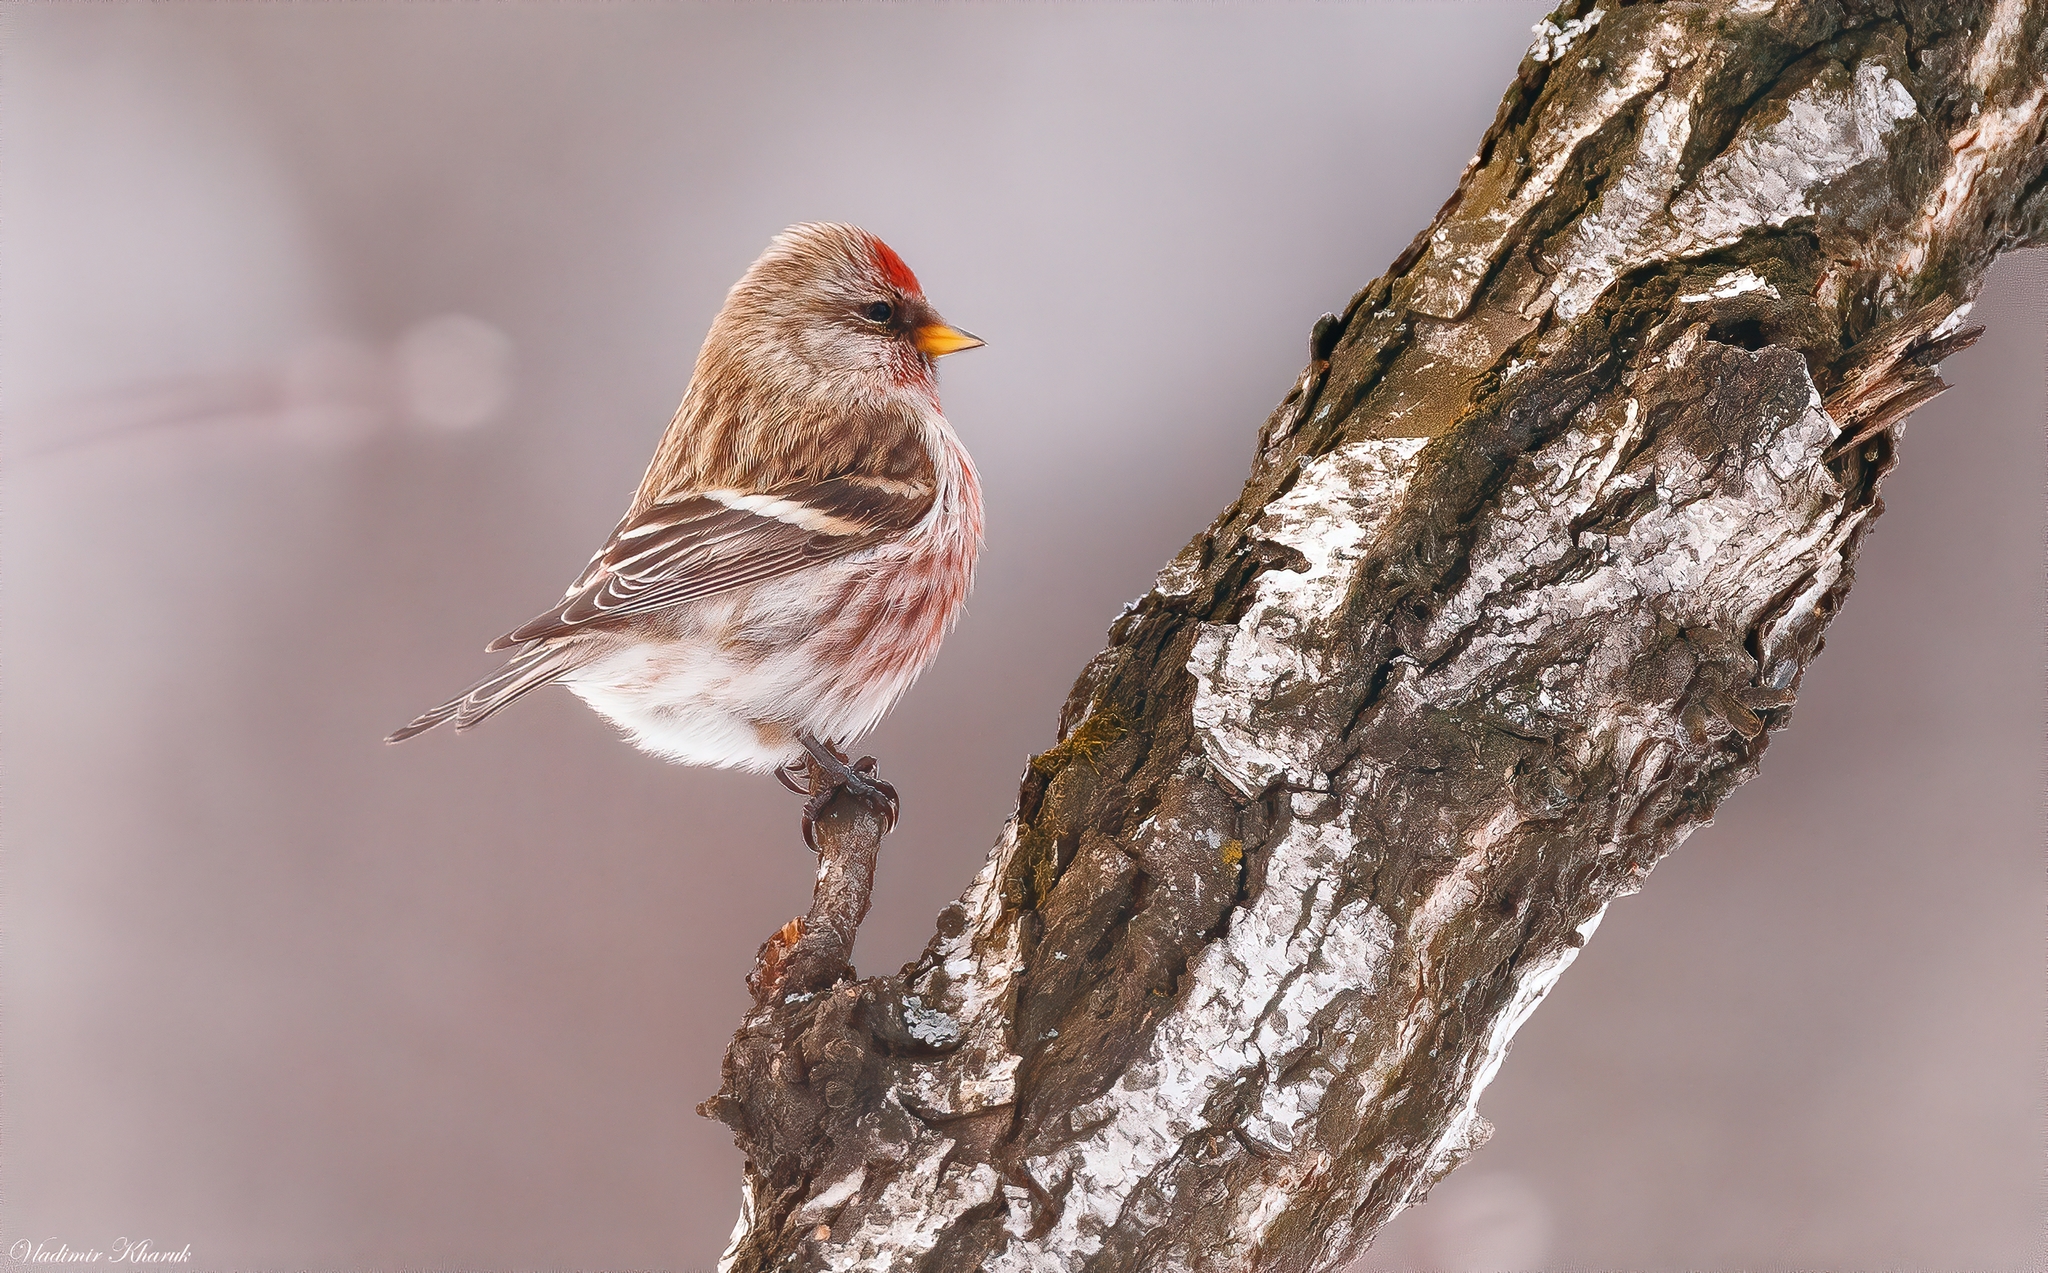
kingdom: Animalia
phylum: Chordata
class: Aves
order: Passeriformes
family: Fringillidae
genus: Acanthis
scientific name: Acanthis flammea
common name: Common redpoll
